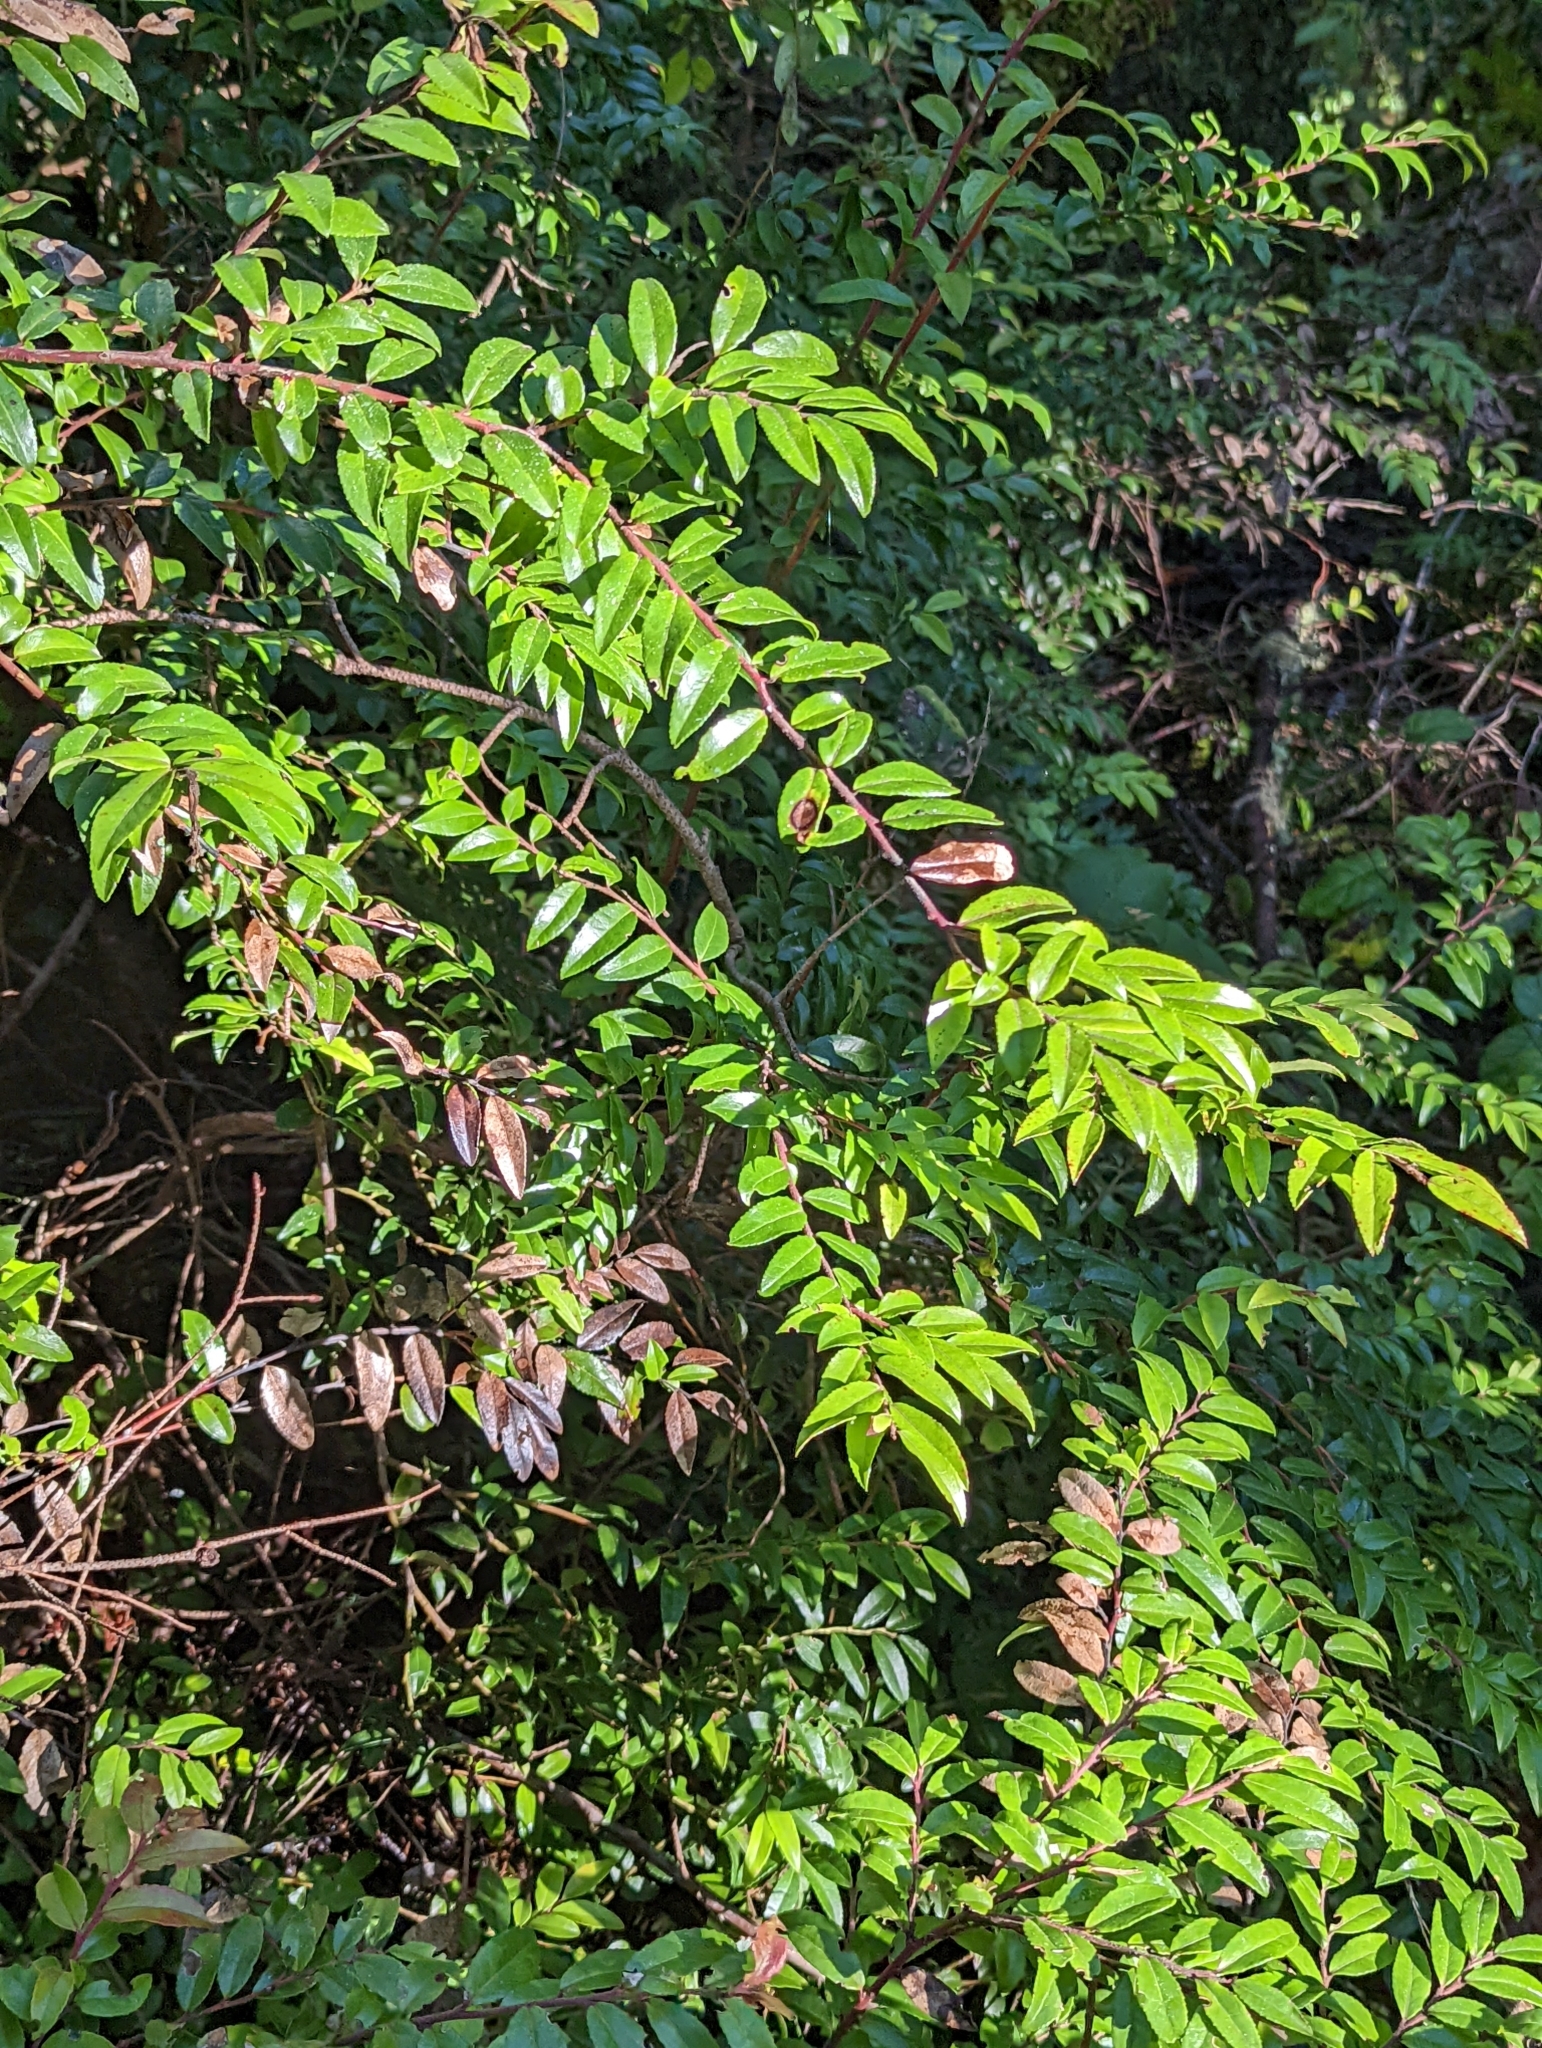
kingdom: Plantae
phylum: Tracheophyta
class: Magnoliopsida
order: Ericales
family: Ericaceae
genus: Vaccinium
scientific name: Vaccinium ovatum
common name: California-huckleberry
